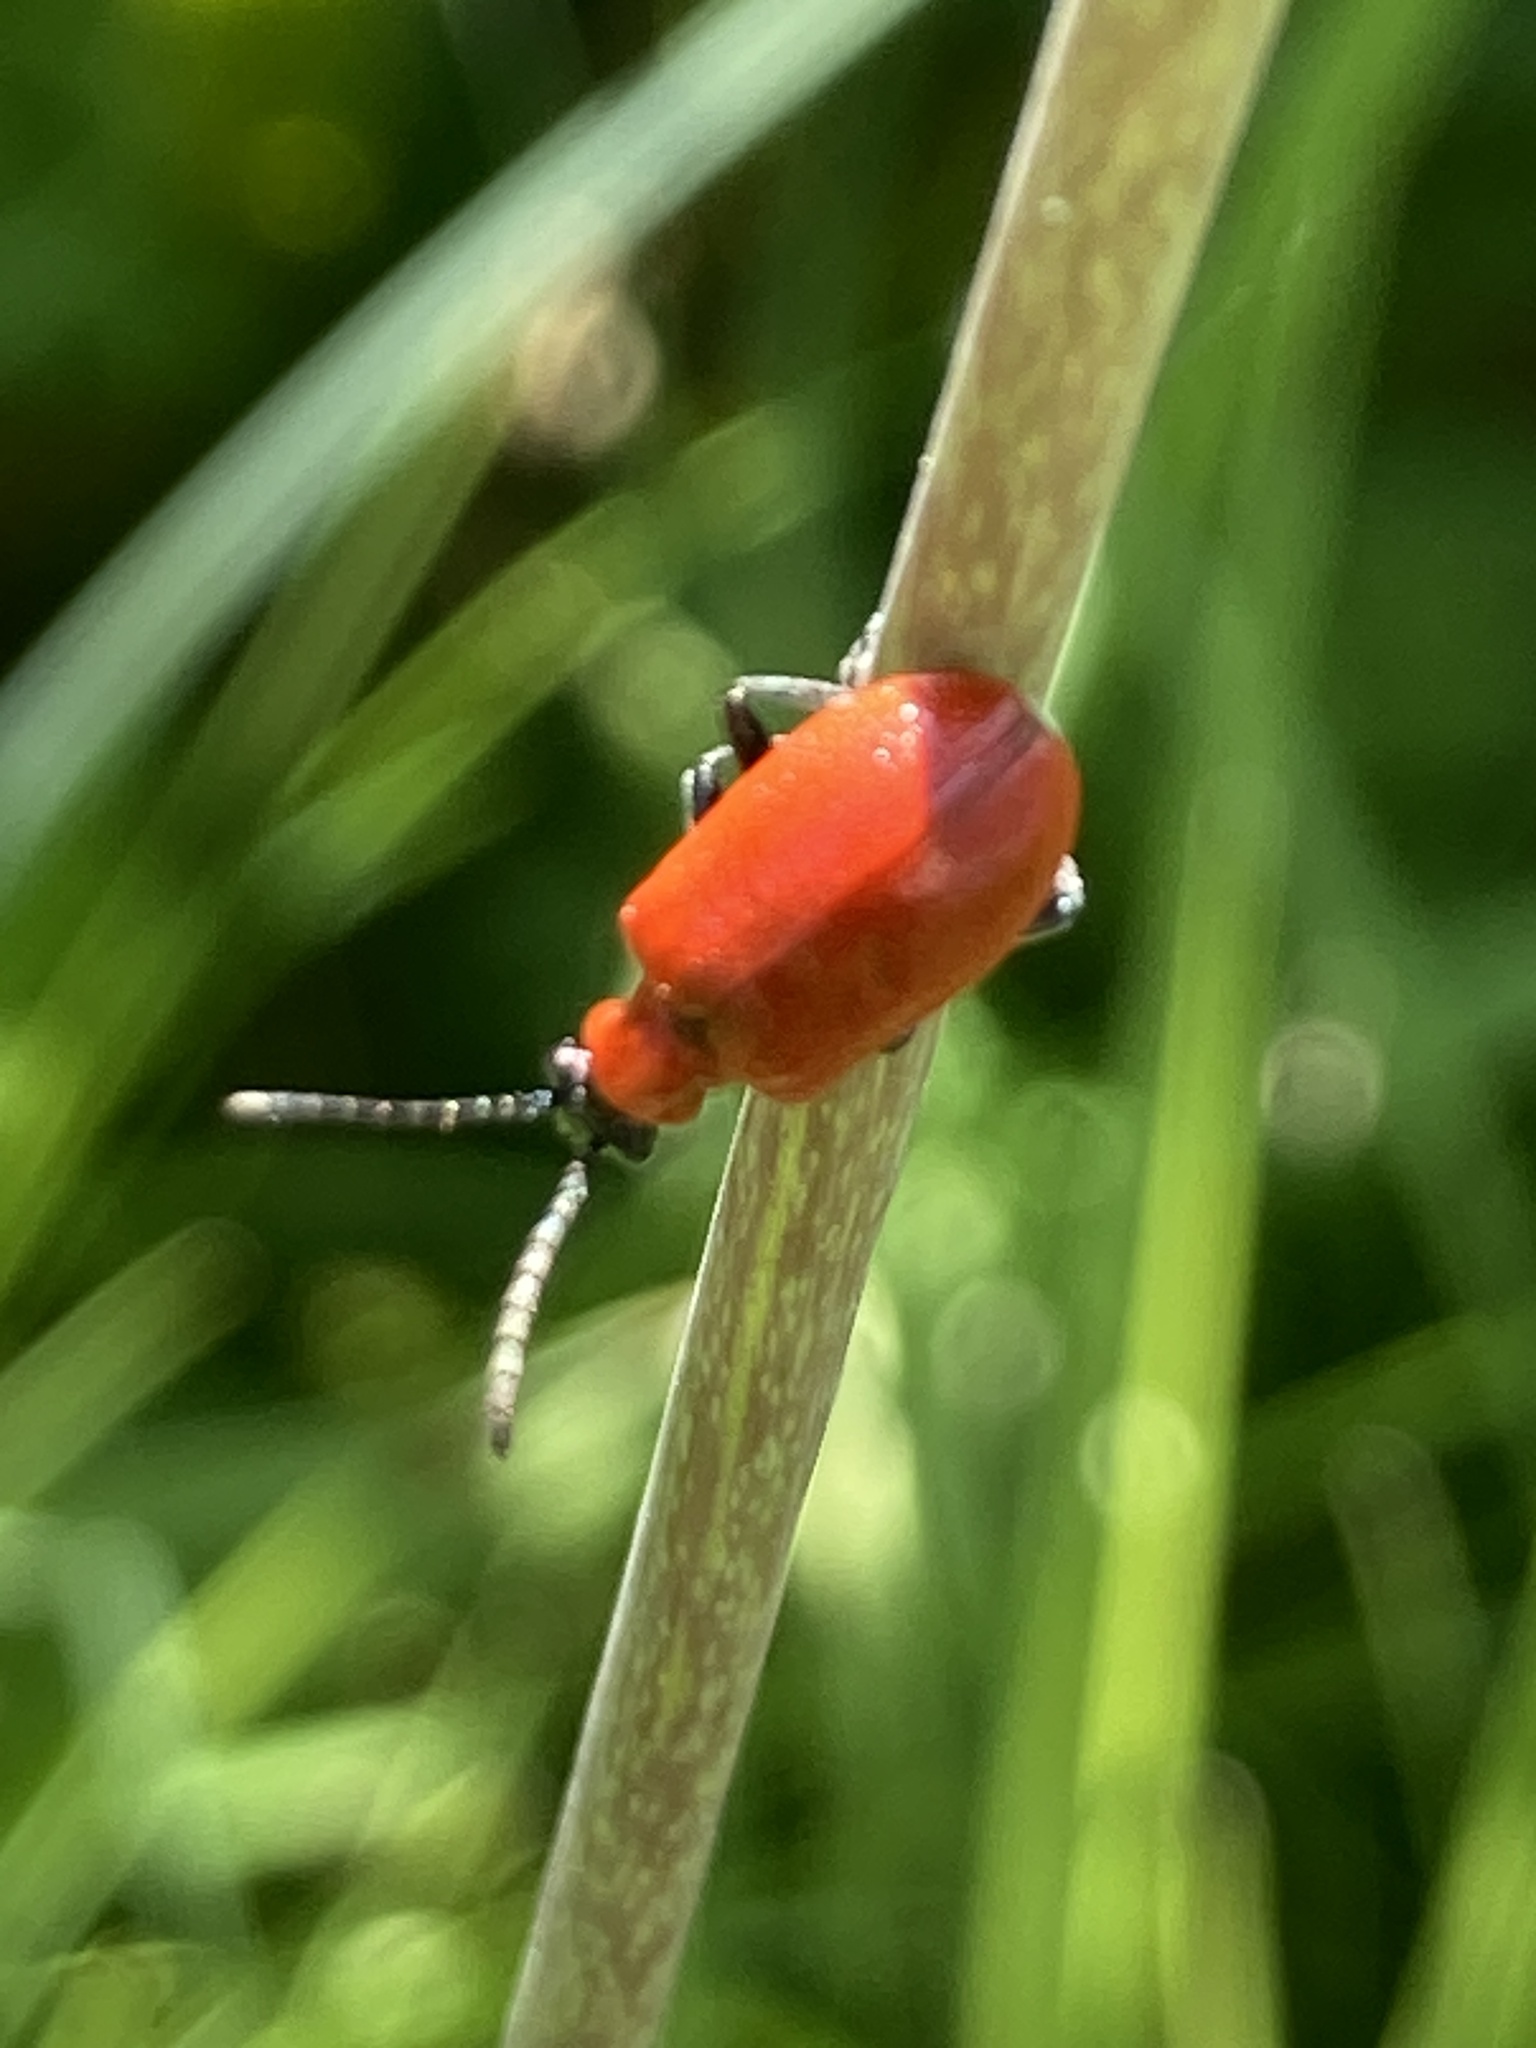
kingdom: Animalia
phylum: Arthropoda
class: Insecta
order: Coleoptera
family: Chrysomelidae
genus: Lilioceris
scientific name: Lilioceris lilii
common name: Lily beetle
